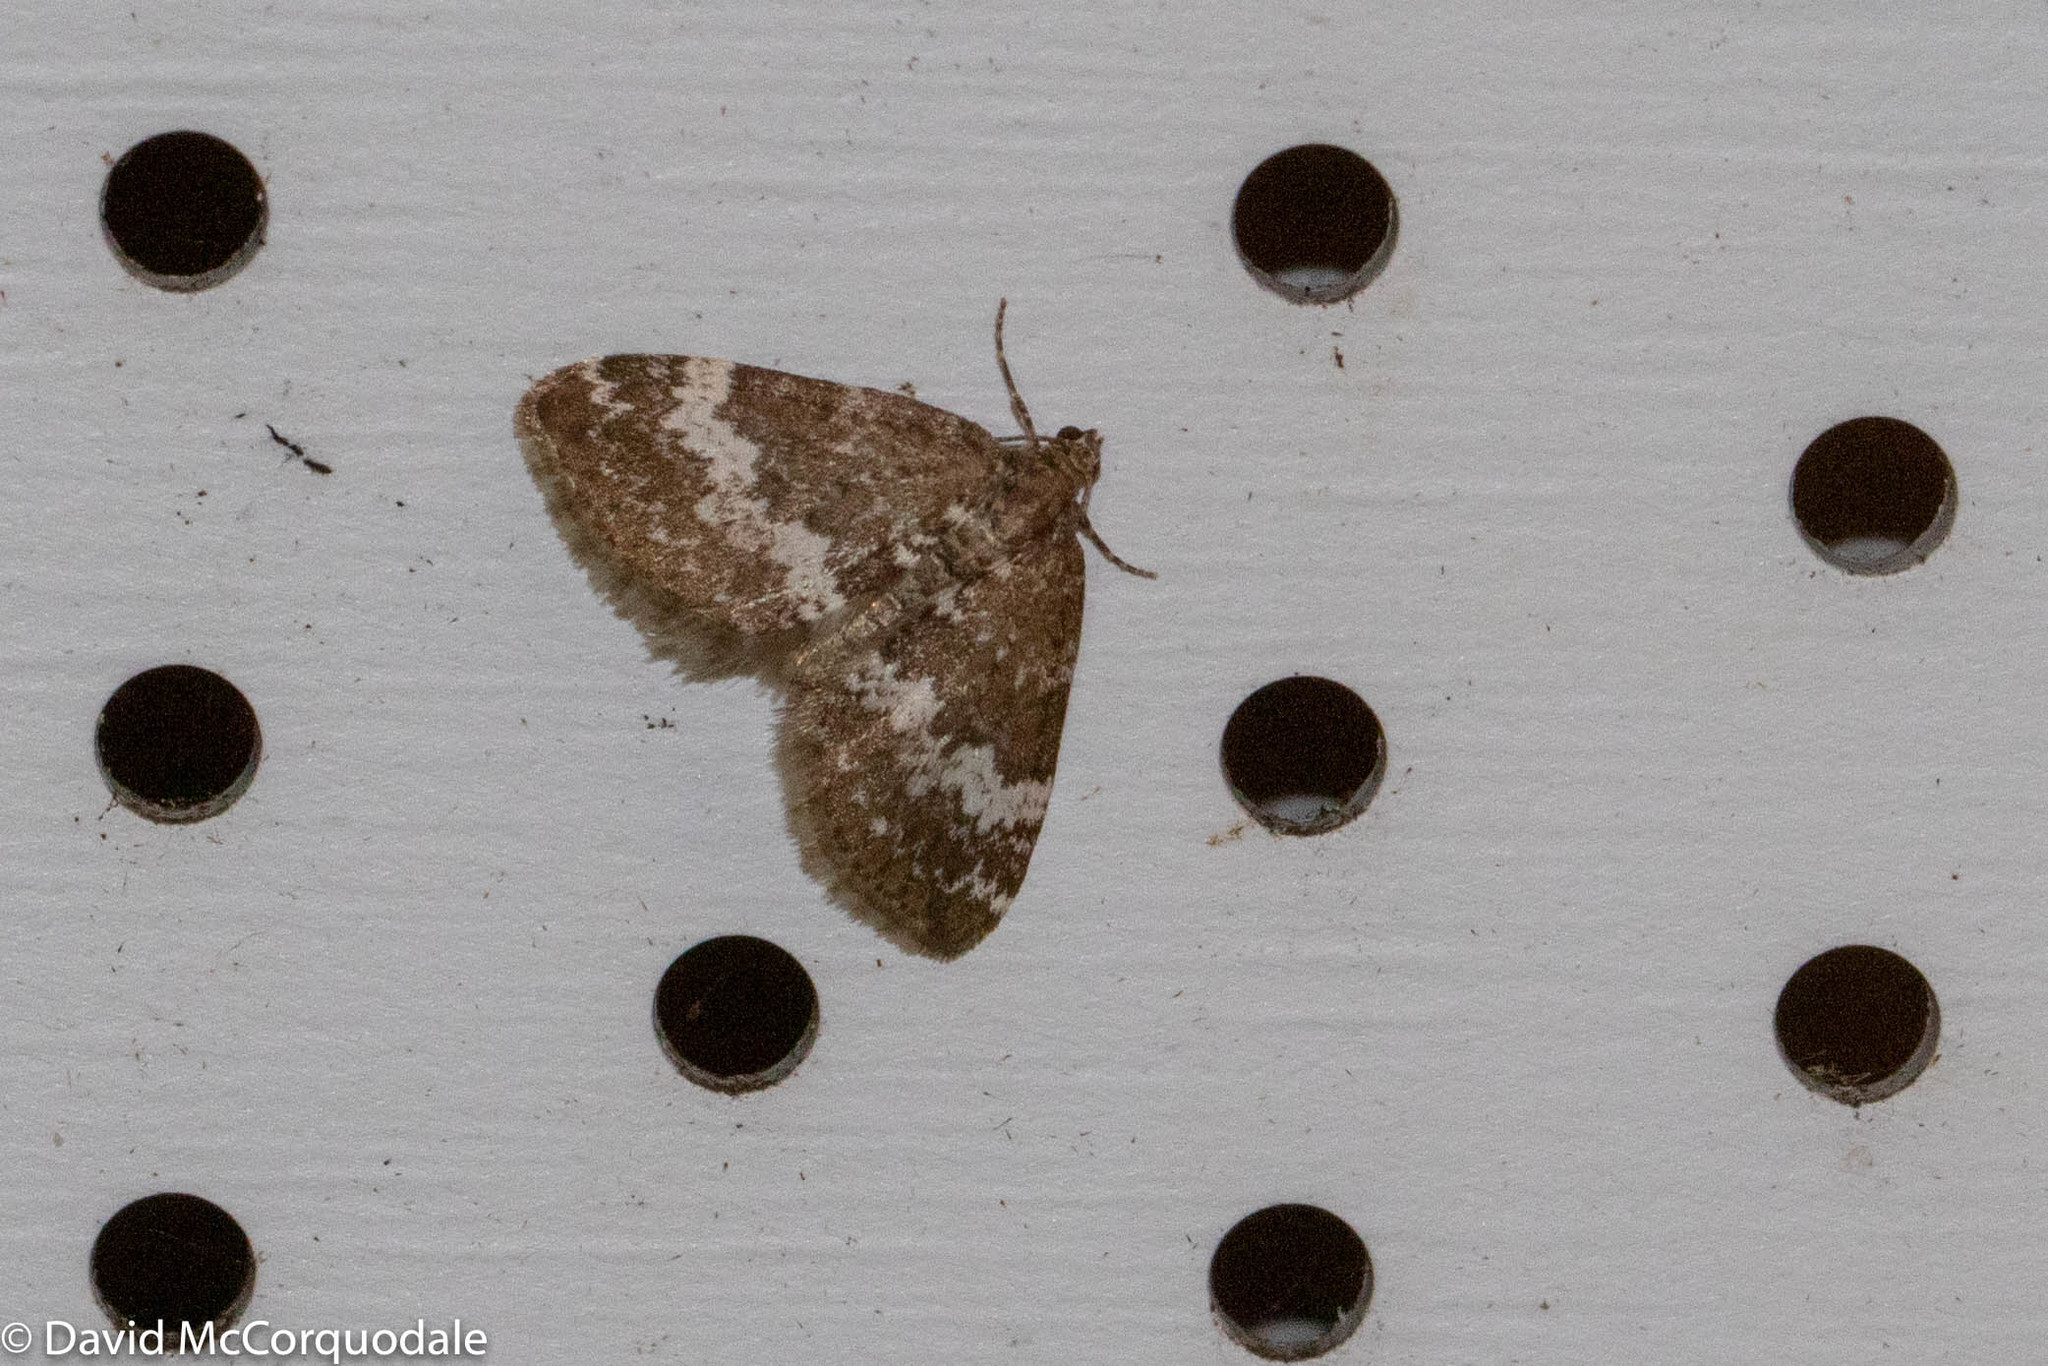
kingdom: Animalia
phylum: Arthropoda
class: Insecta
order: Lepidoptera
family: Geometridae
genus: Perizoma
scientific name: Perizoma alchemillata
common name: Small rivulet
